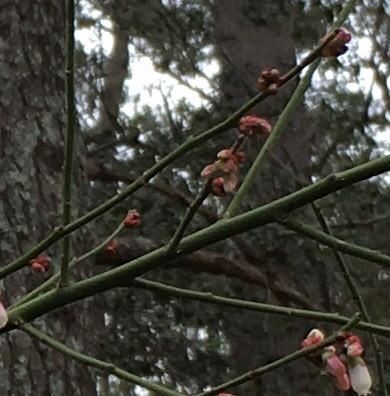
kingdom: Plantae
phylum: Tracheophyta
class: Magnoliopsida
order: Ericales
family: Ericaceae
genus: Vaccinium
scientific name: Vaccinium corymbosum
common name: Blueberry
